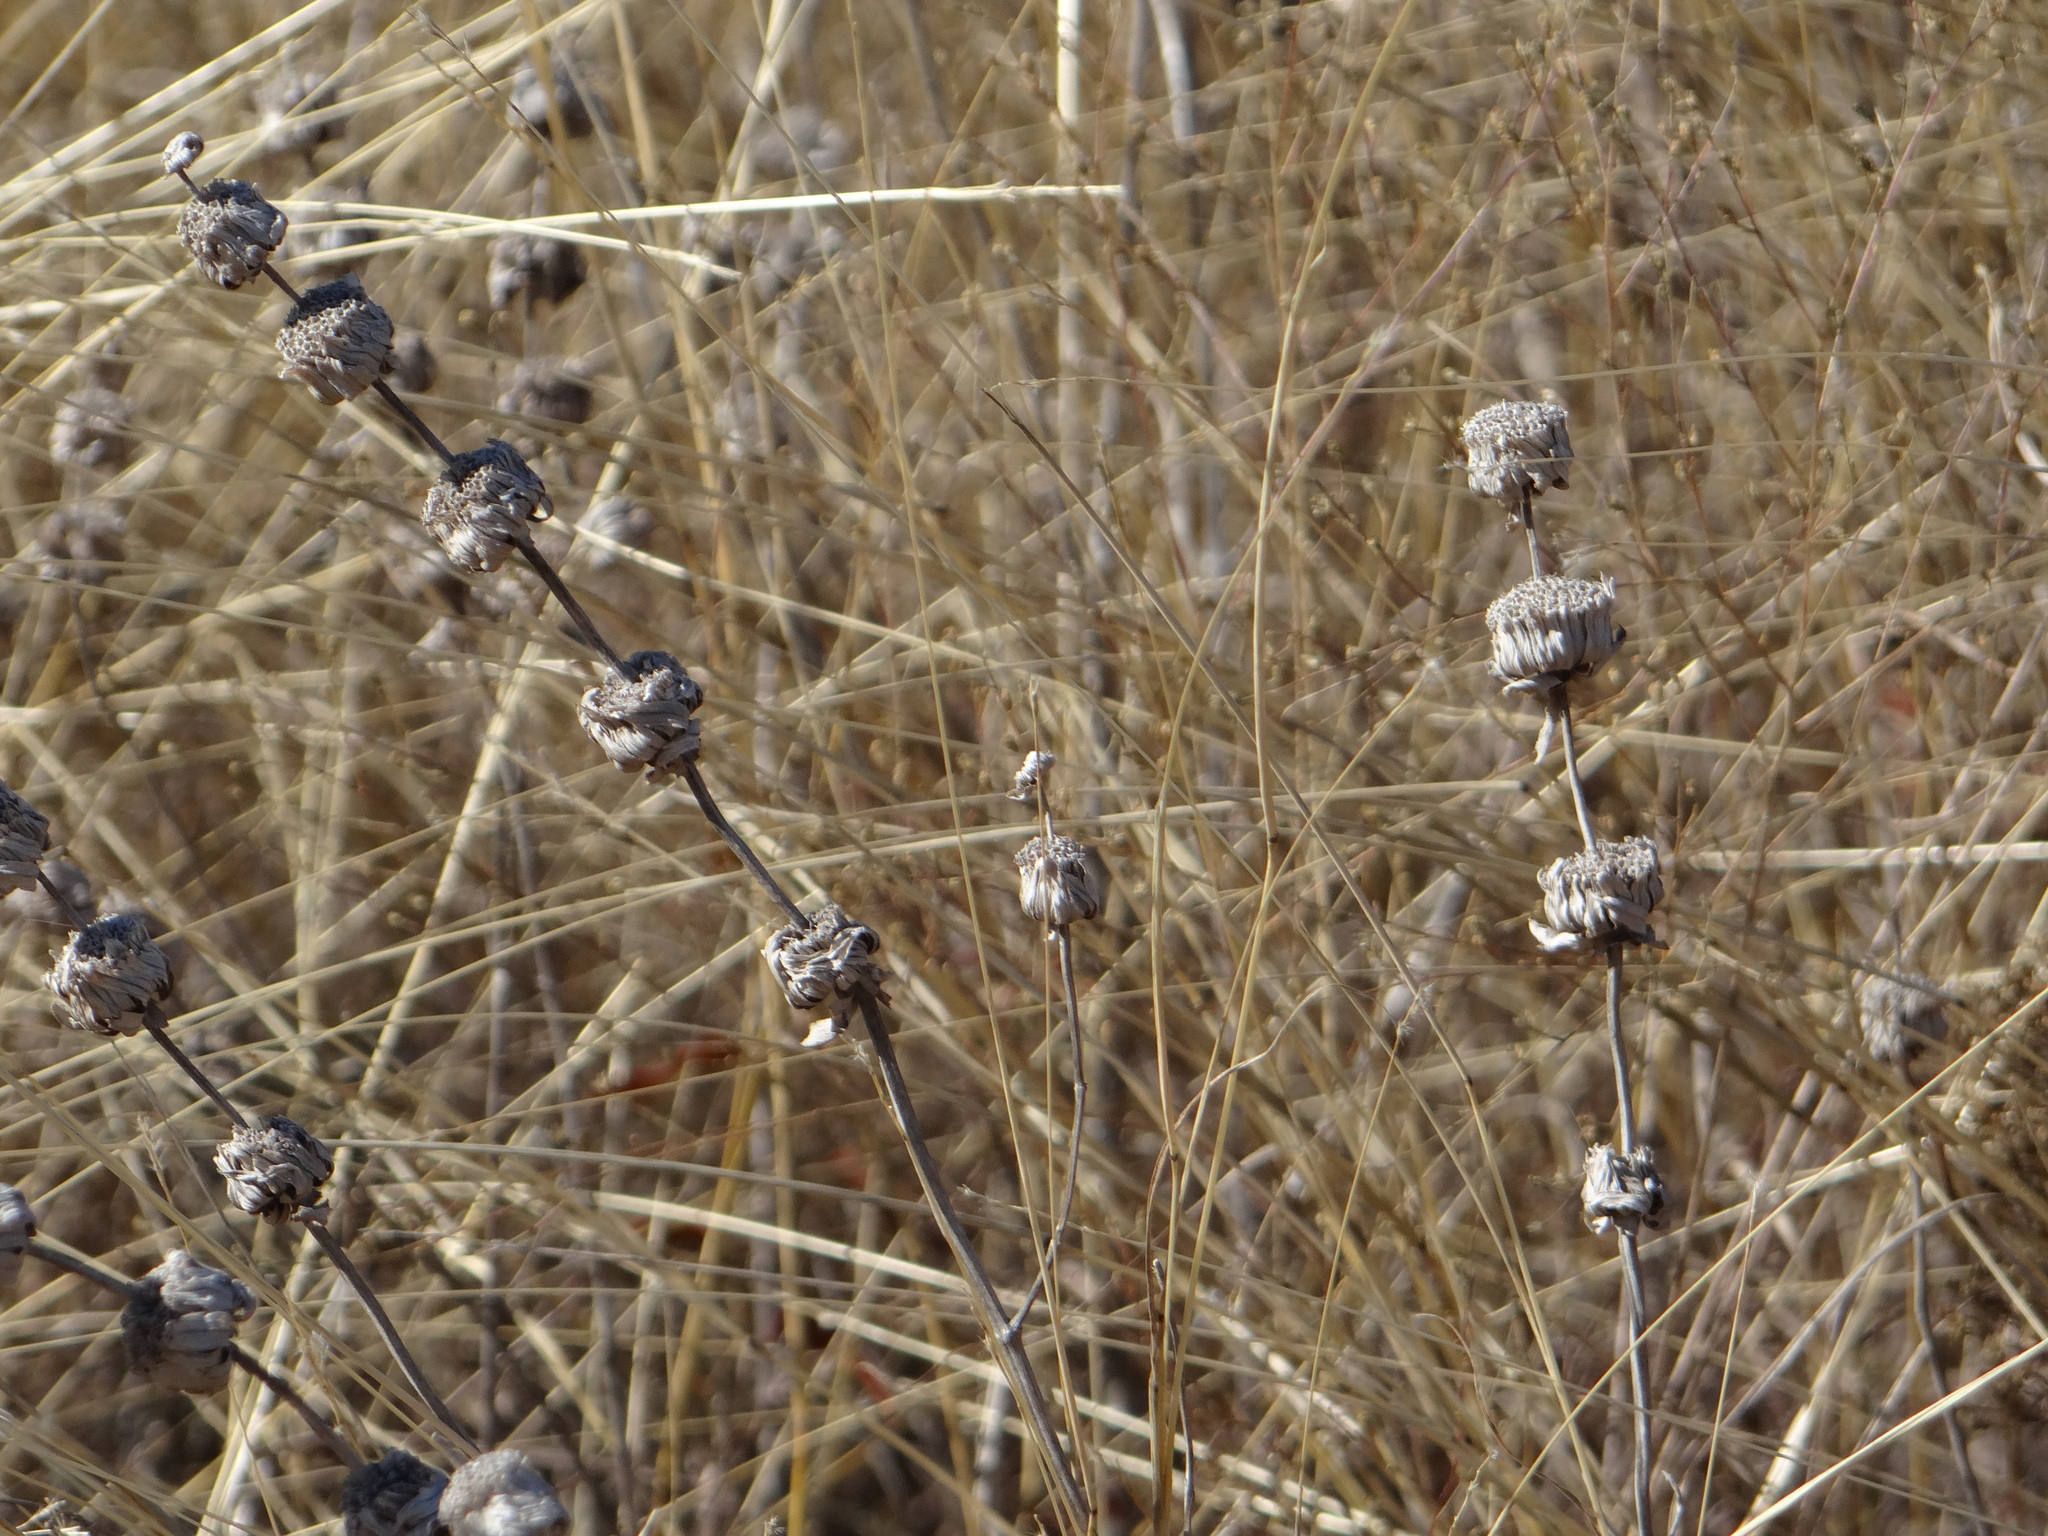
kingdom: Plantae
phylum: Tracheophyta
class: Magnoliopsida
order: Lamiales
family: Lamiaceae
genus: Monarda
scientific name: Monarda citriodora
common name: Lemon beebalm
